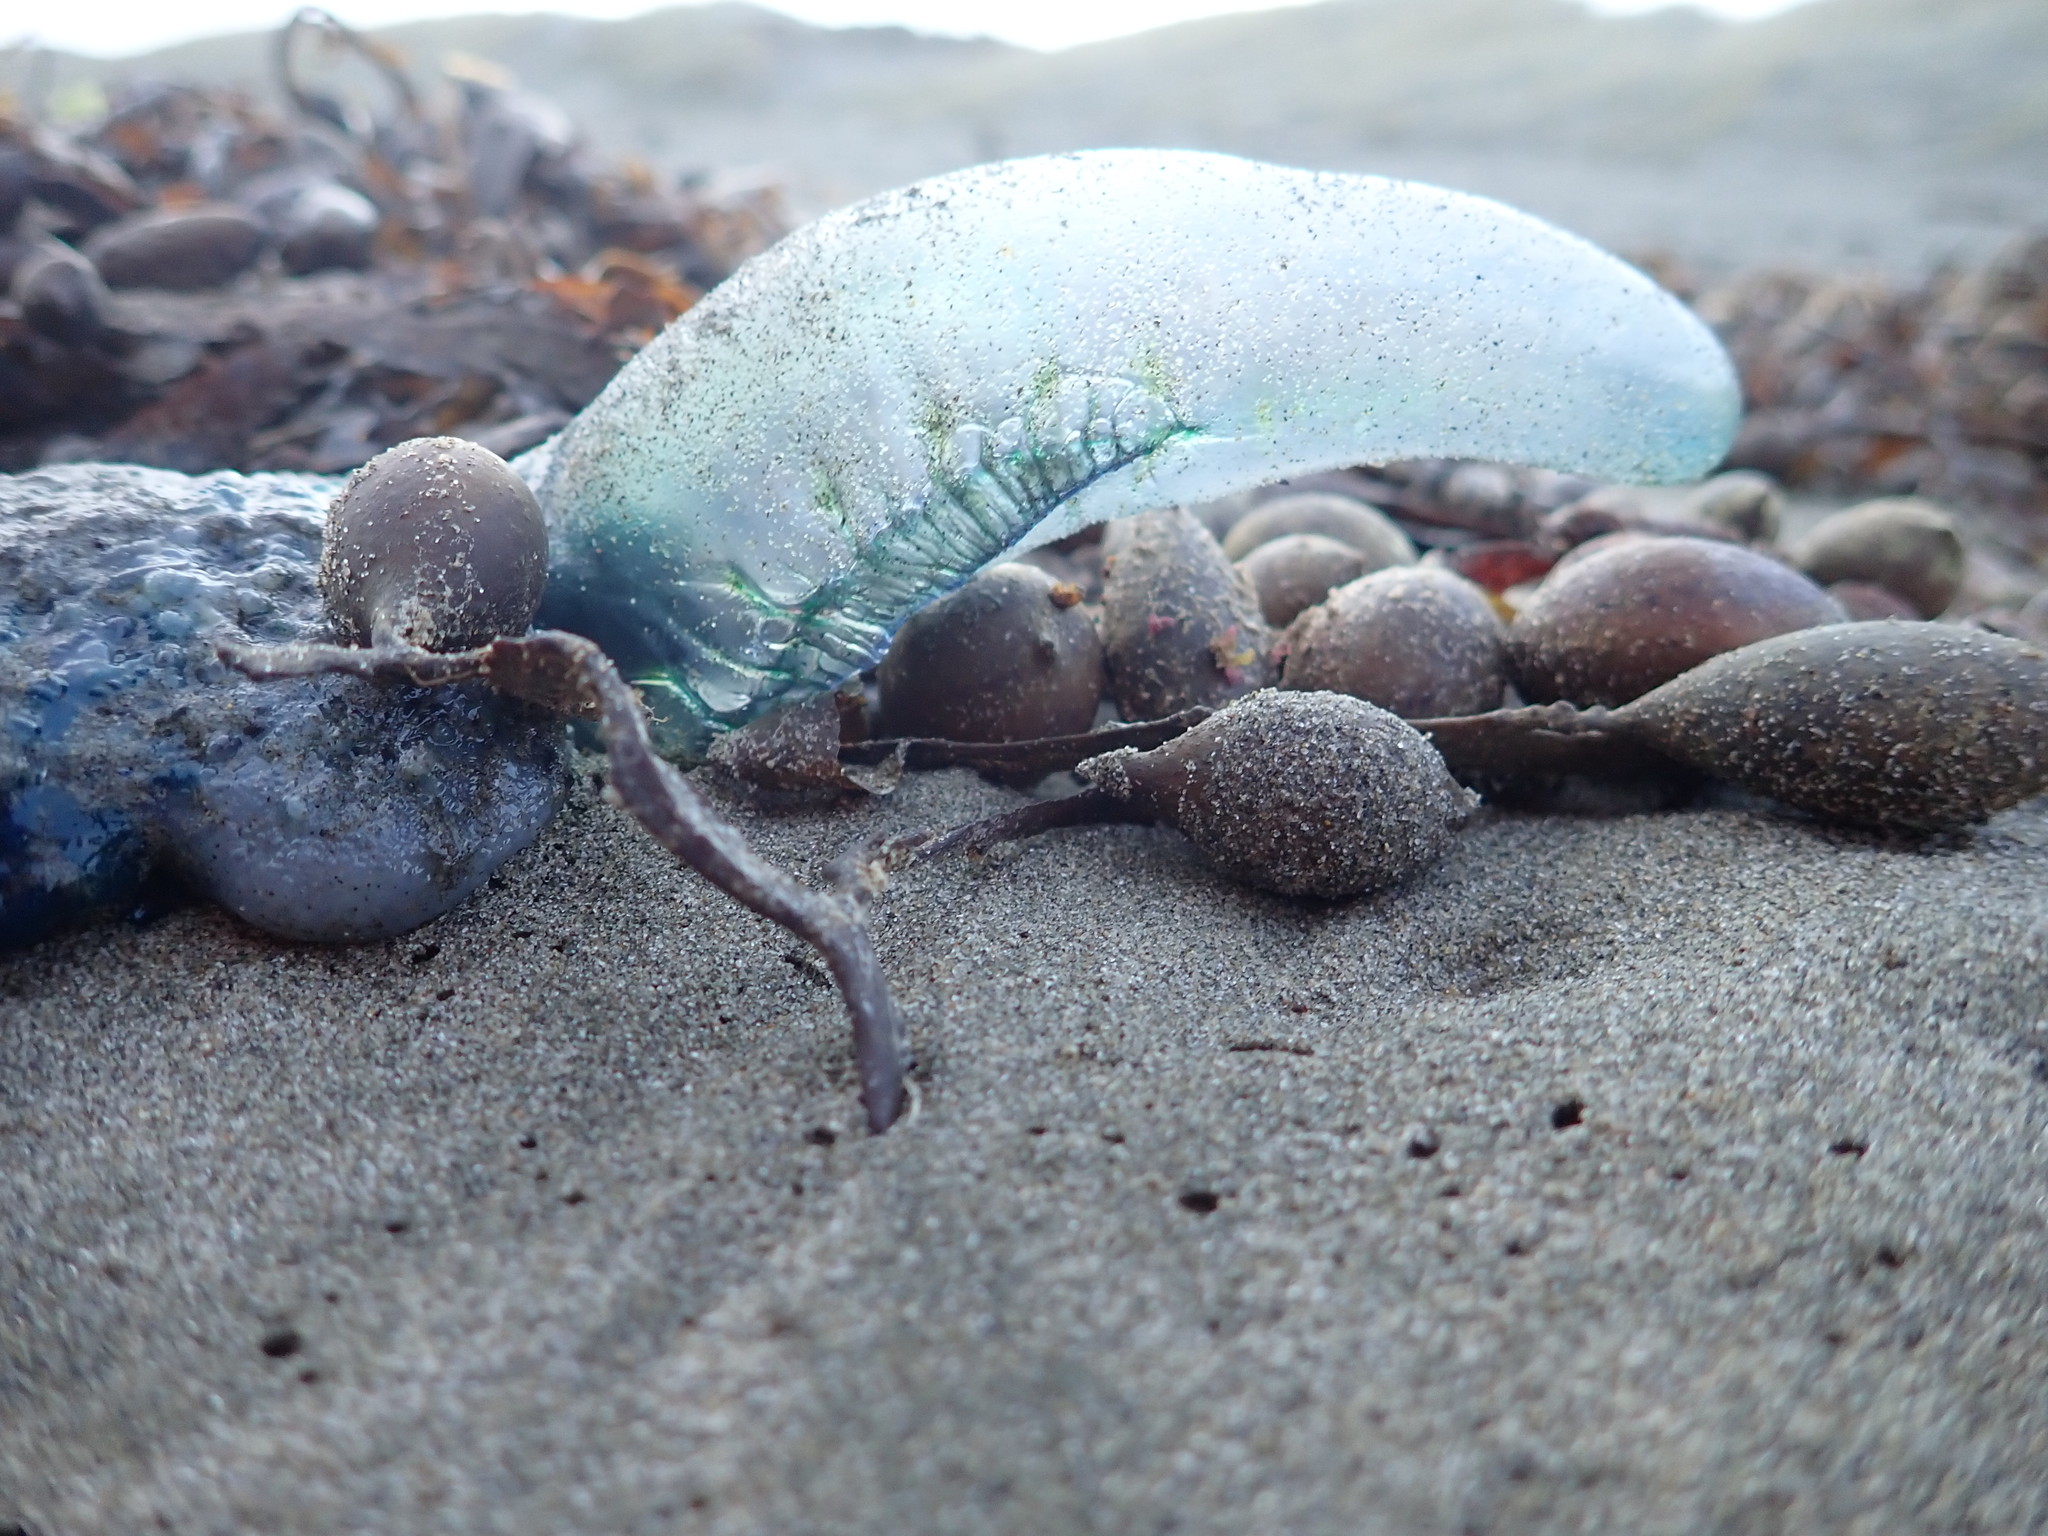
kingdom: Animalia
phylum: Cnidaria
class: Hydrozoa
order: Siphonophorae
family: Physaliidae
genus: Physalia
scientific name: Physalia physalis
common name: Portuguese man-of-war
